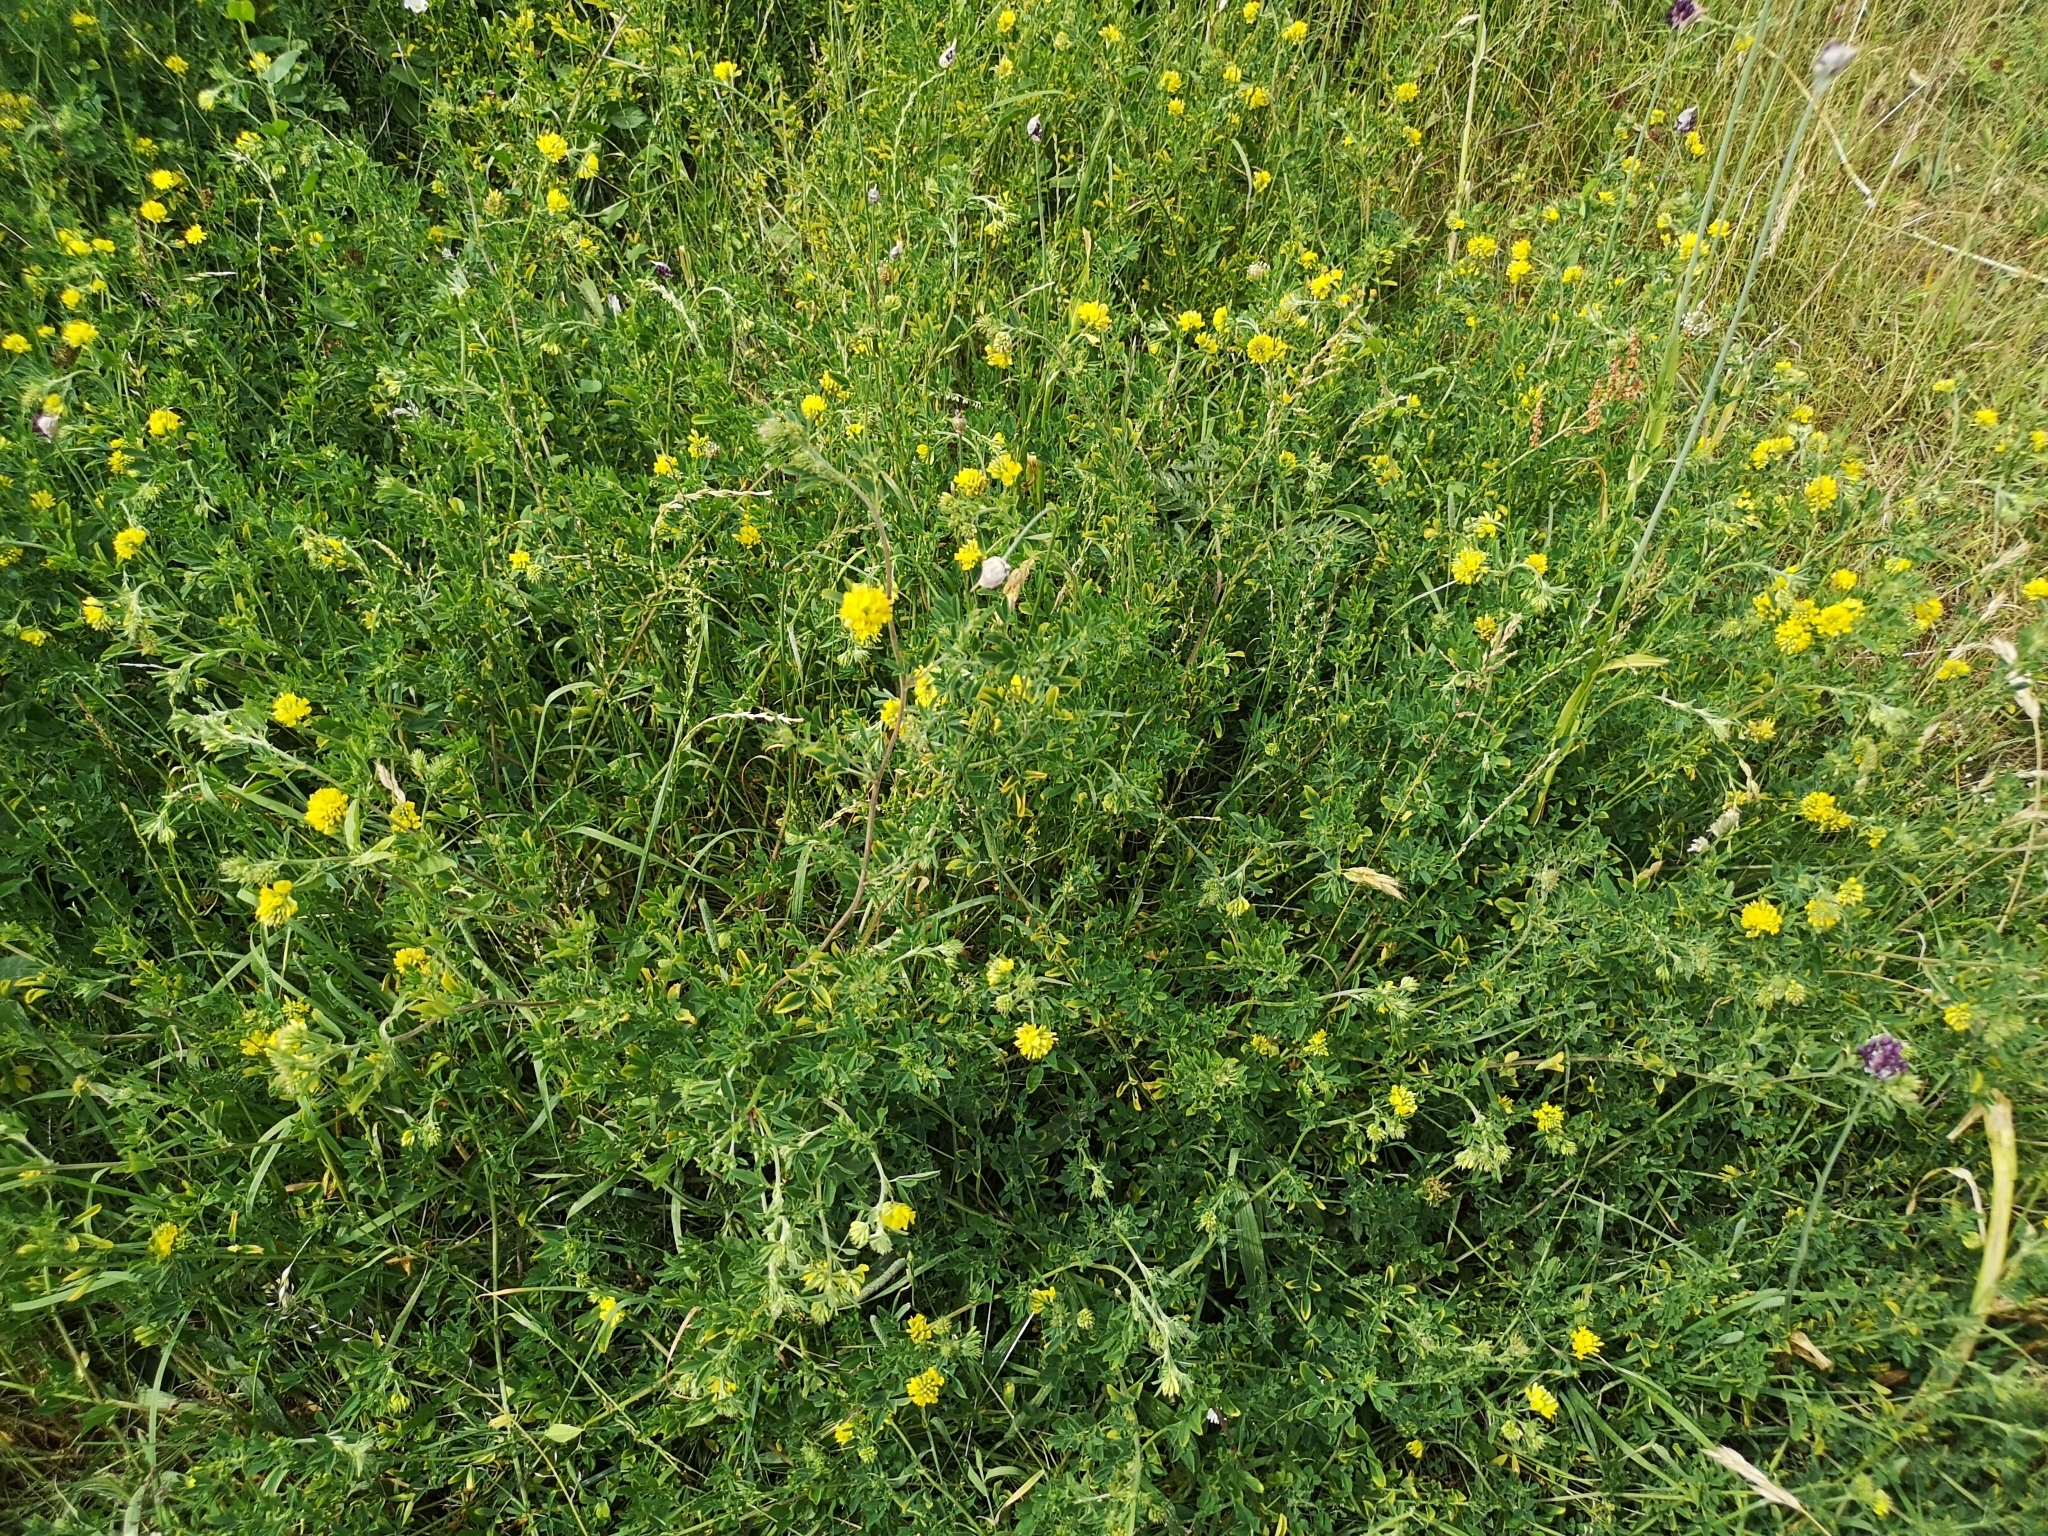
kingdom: Plantae
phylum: Tracheophyta
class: Magnoliopsida
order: Fabales
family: Fabaceae
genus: Medicago
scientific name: Medicago falcata
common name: Sickle medick
